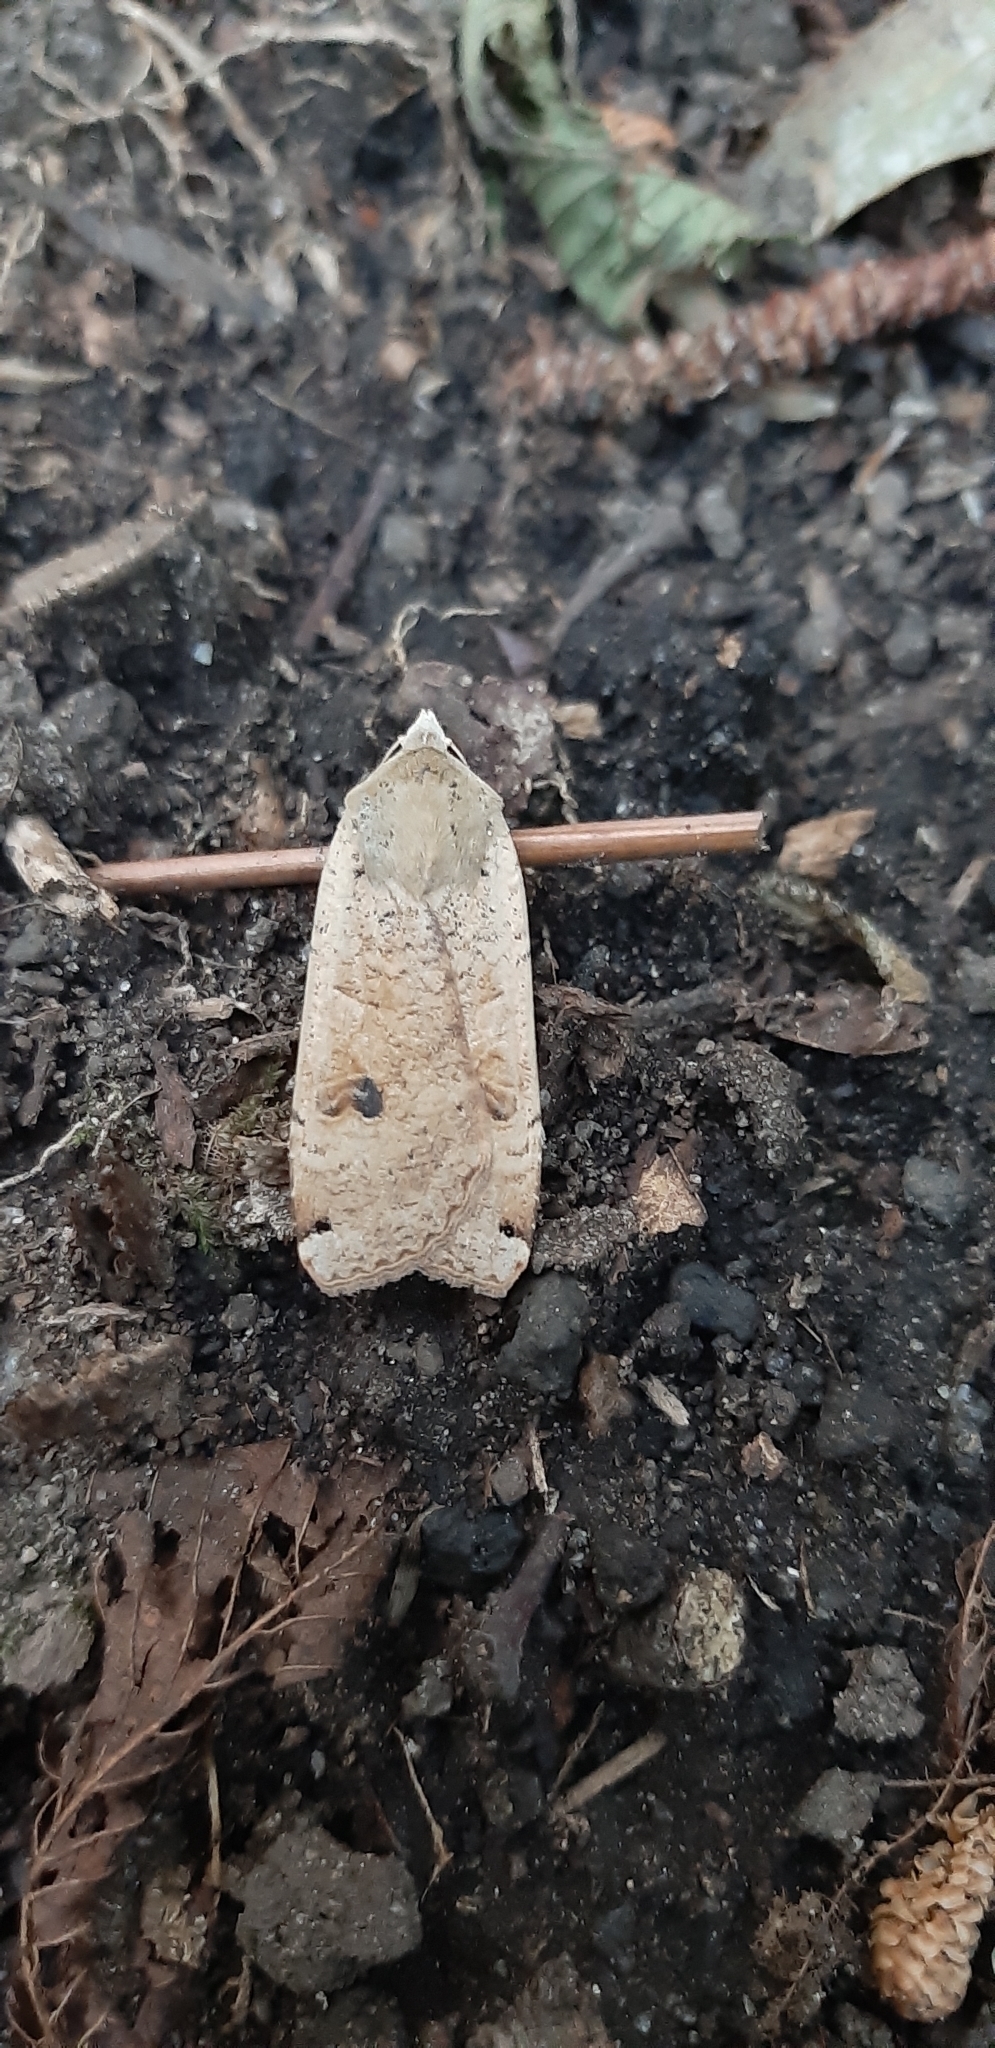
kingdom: Animalia
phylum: Arthropoda
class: Insecta
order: Lepidoptera
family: Noctuidae
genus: Noctua
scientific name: Noctua pronuba
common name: Large yellow underwing
